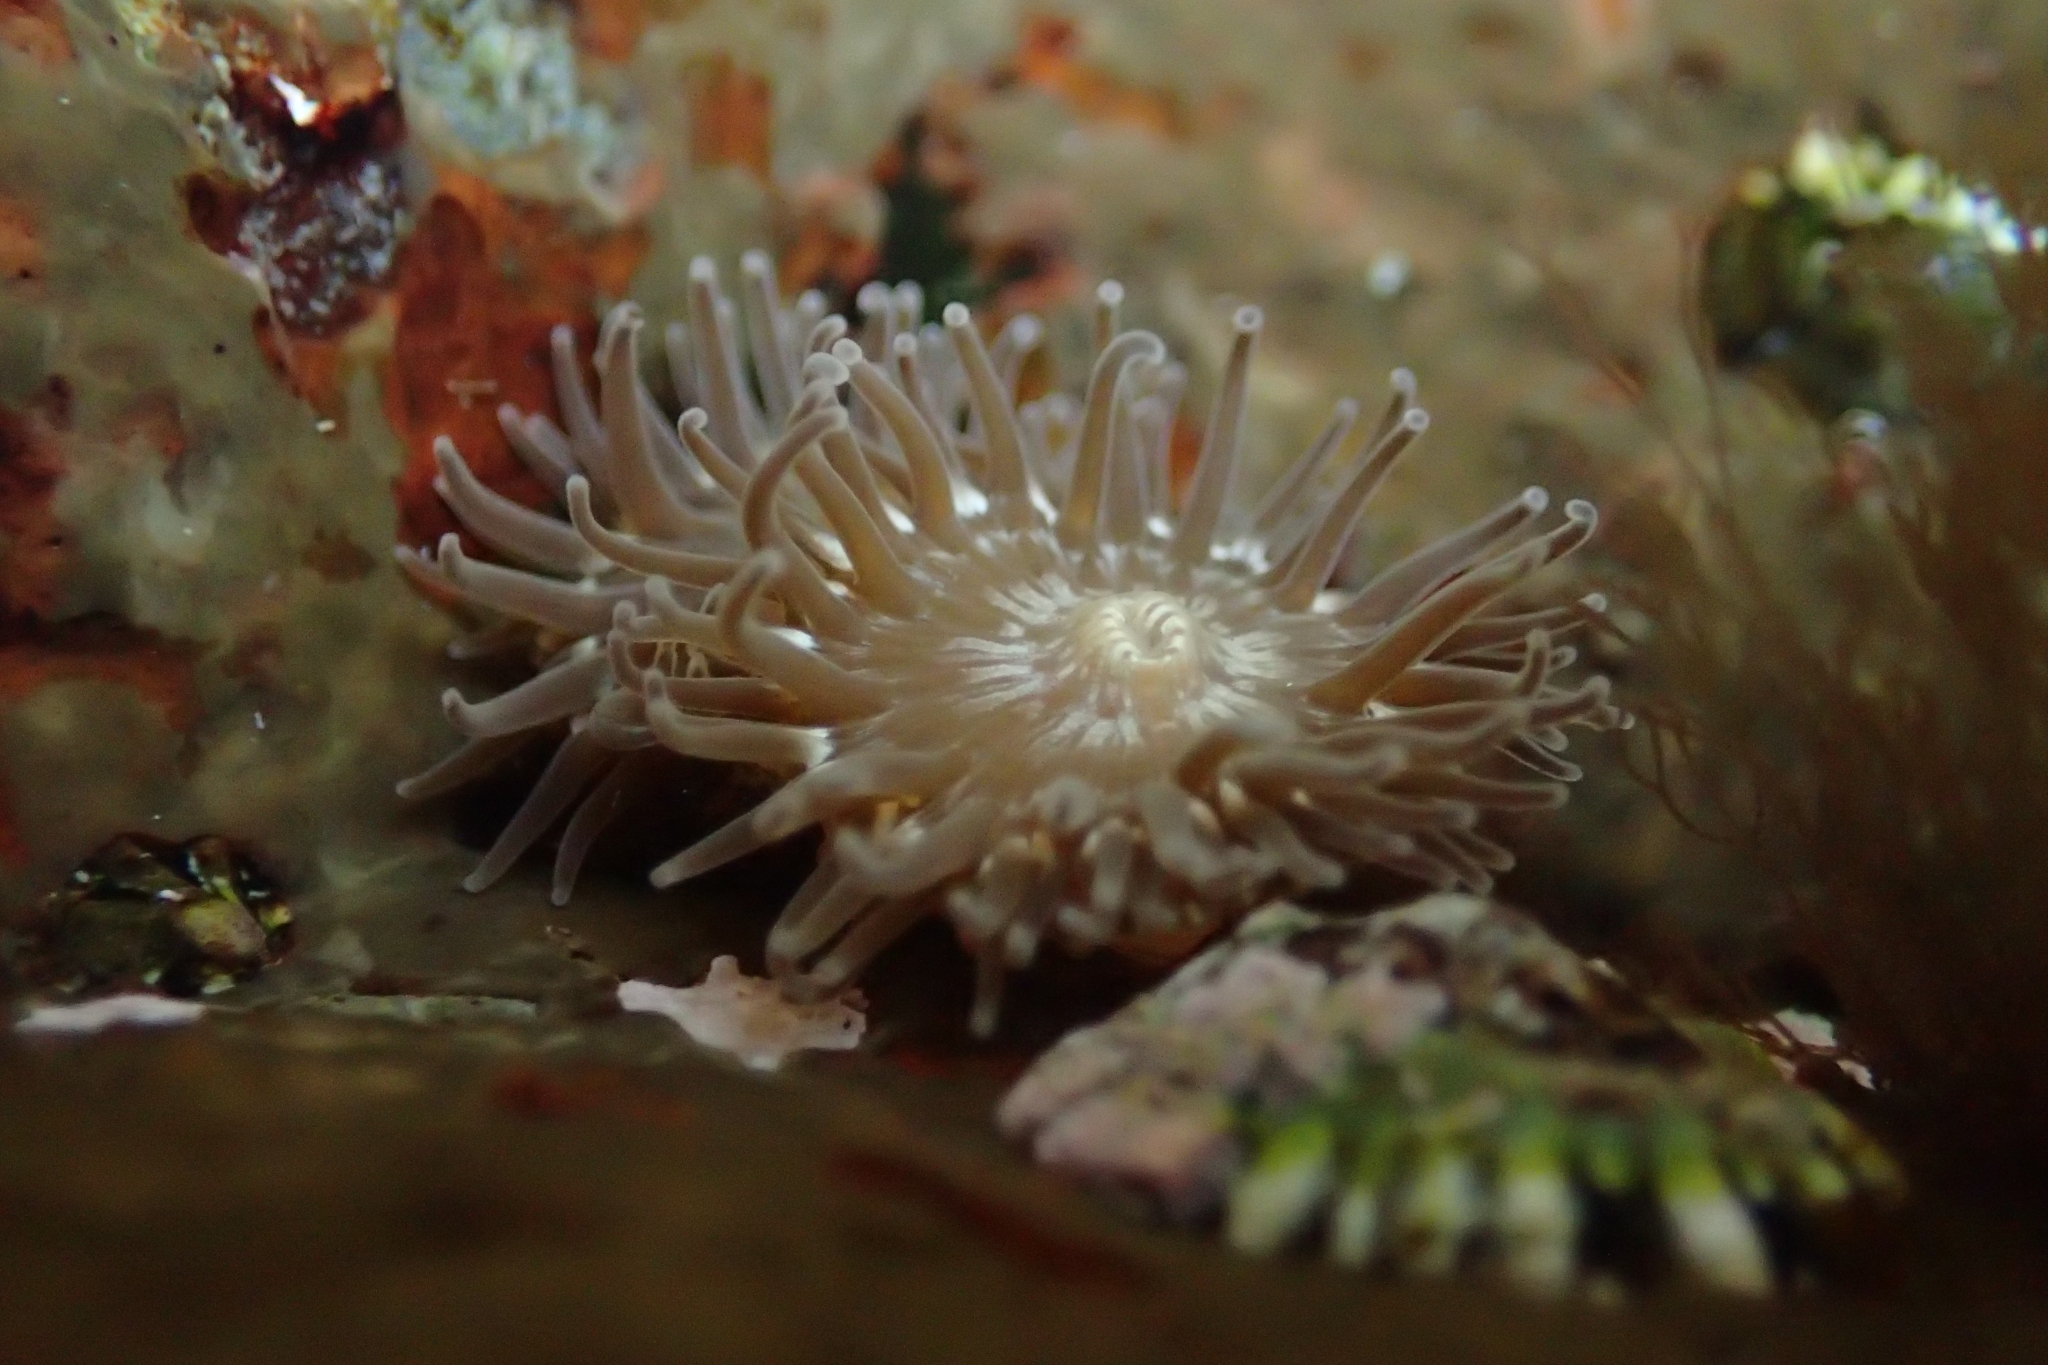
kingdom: Animalia
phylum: Cnidaria
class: Anthozoa
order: Actiniaria
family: Actiniidae
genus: Anthopleura
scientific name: Anthopleura hermaphroditica
